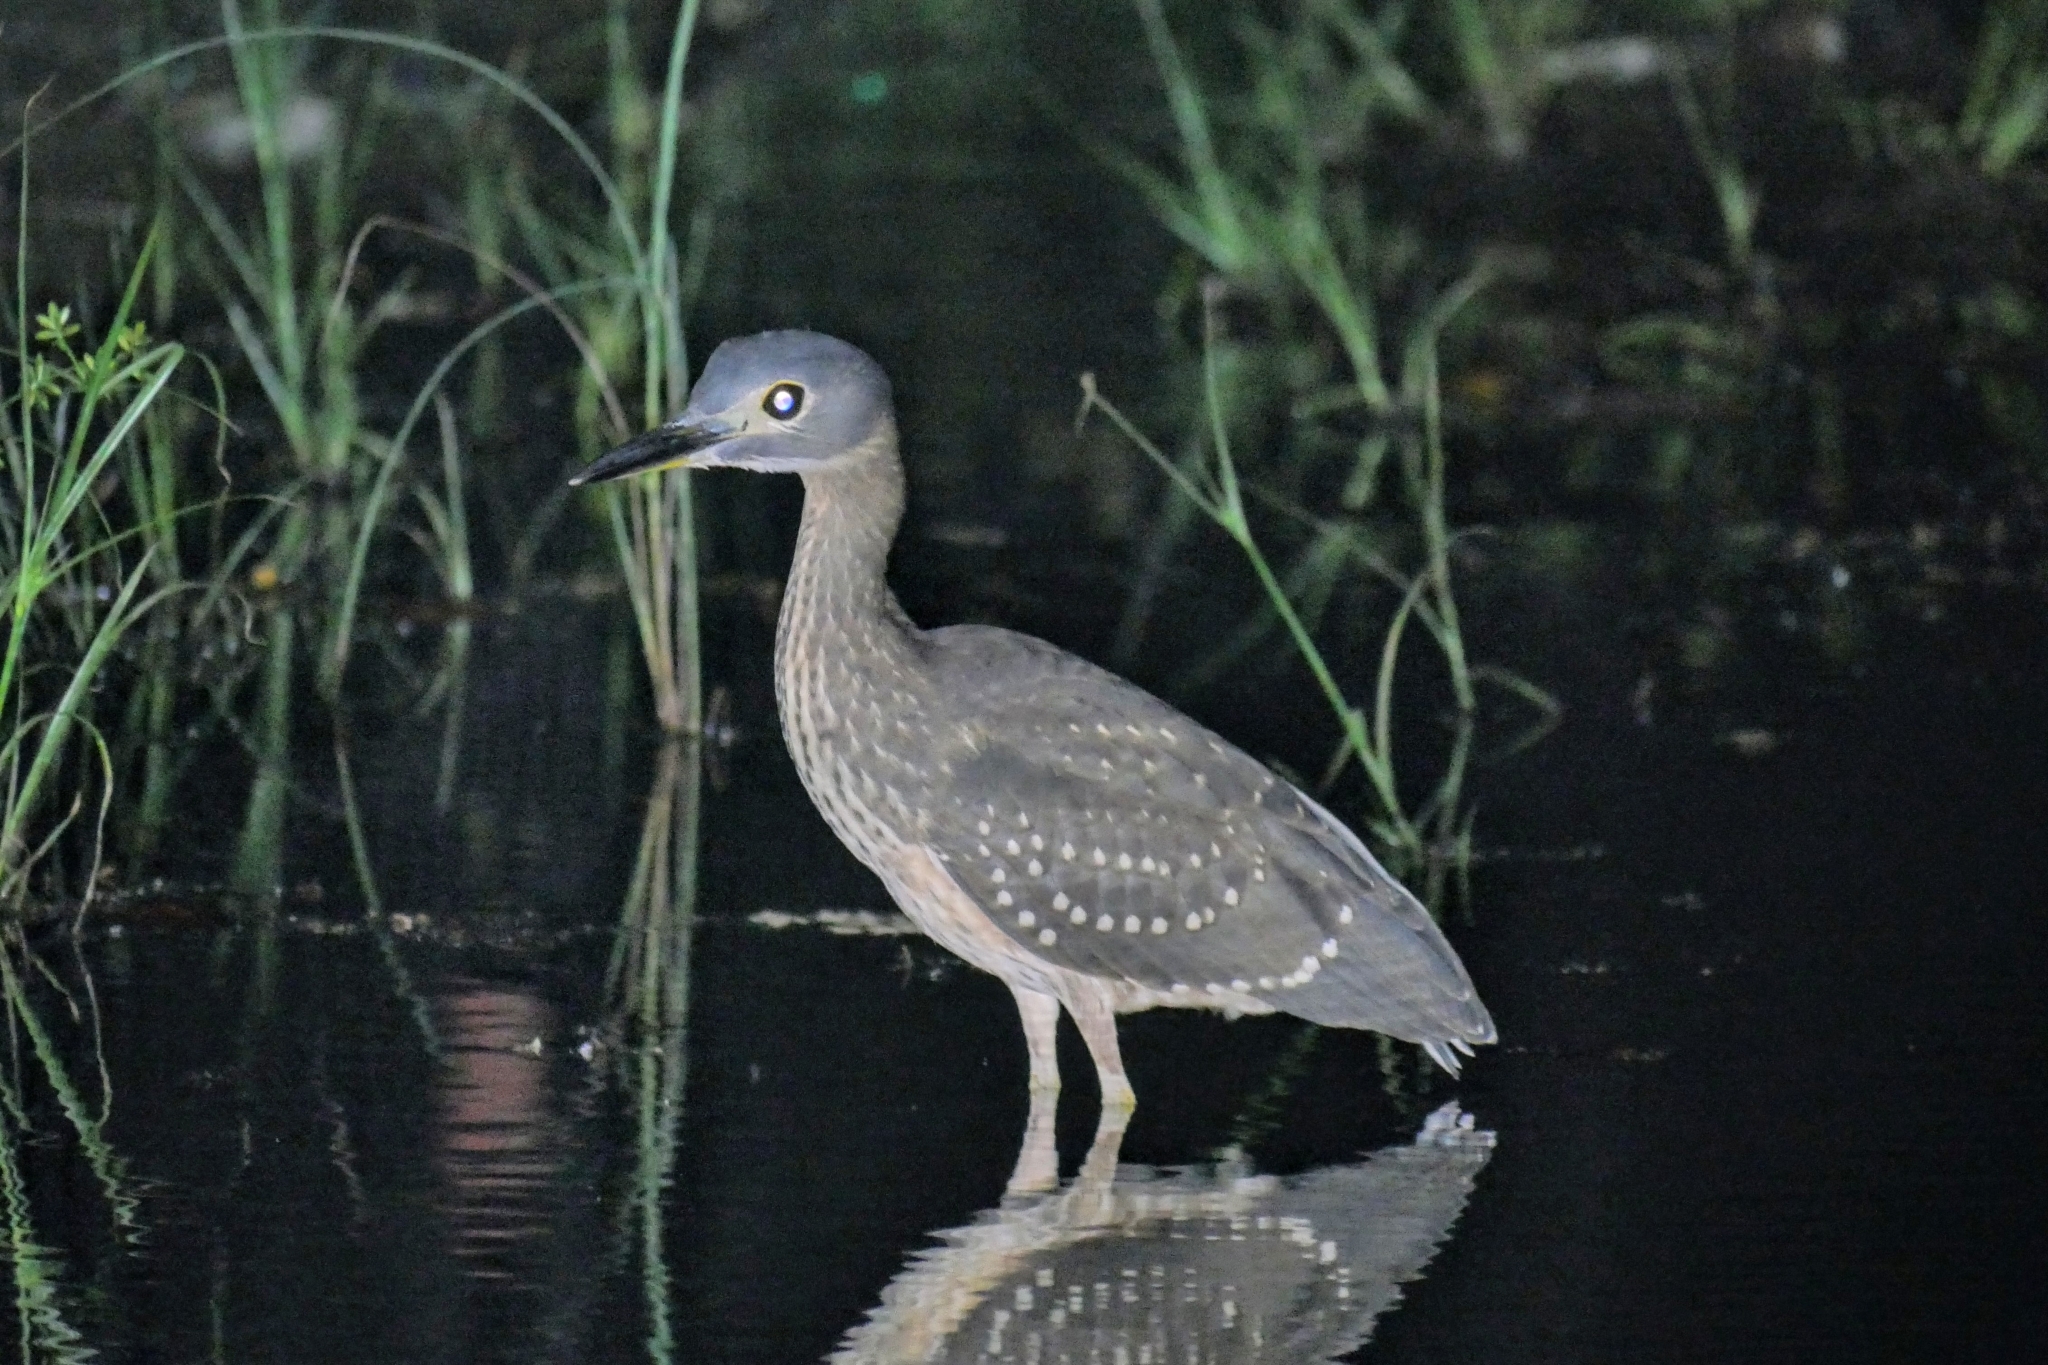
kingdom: Animalia
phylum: Chordata
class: Aves
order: Pelecaniformes
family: Ardeidae
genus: Gorsachius
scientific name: Gorsachius leuconotus
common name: White-backed night heron
